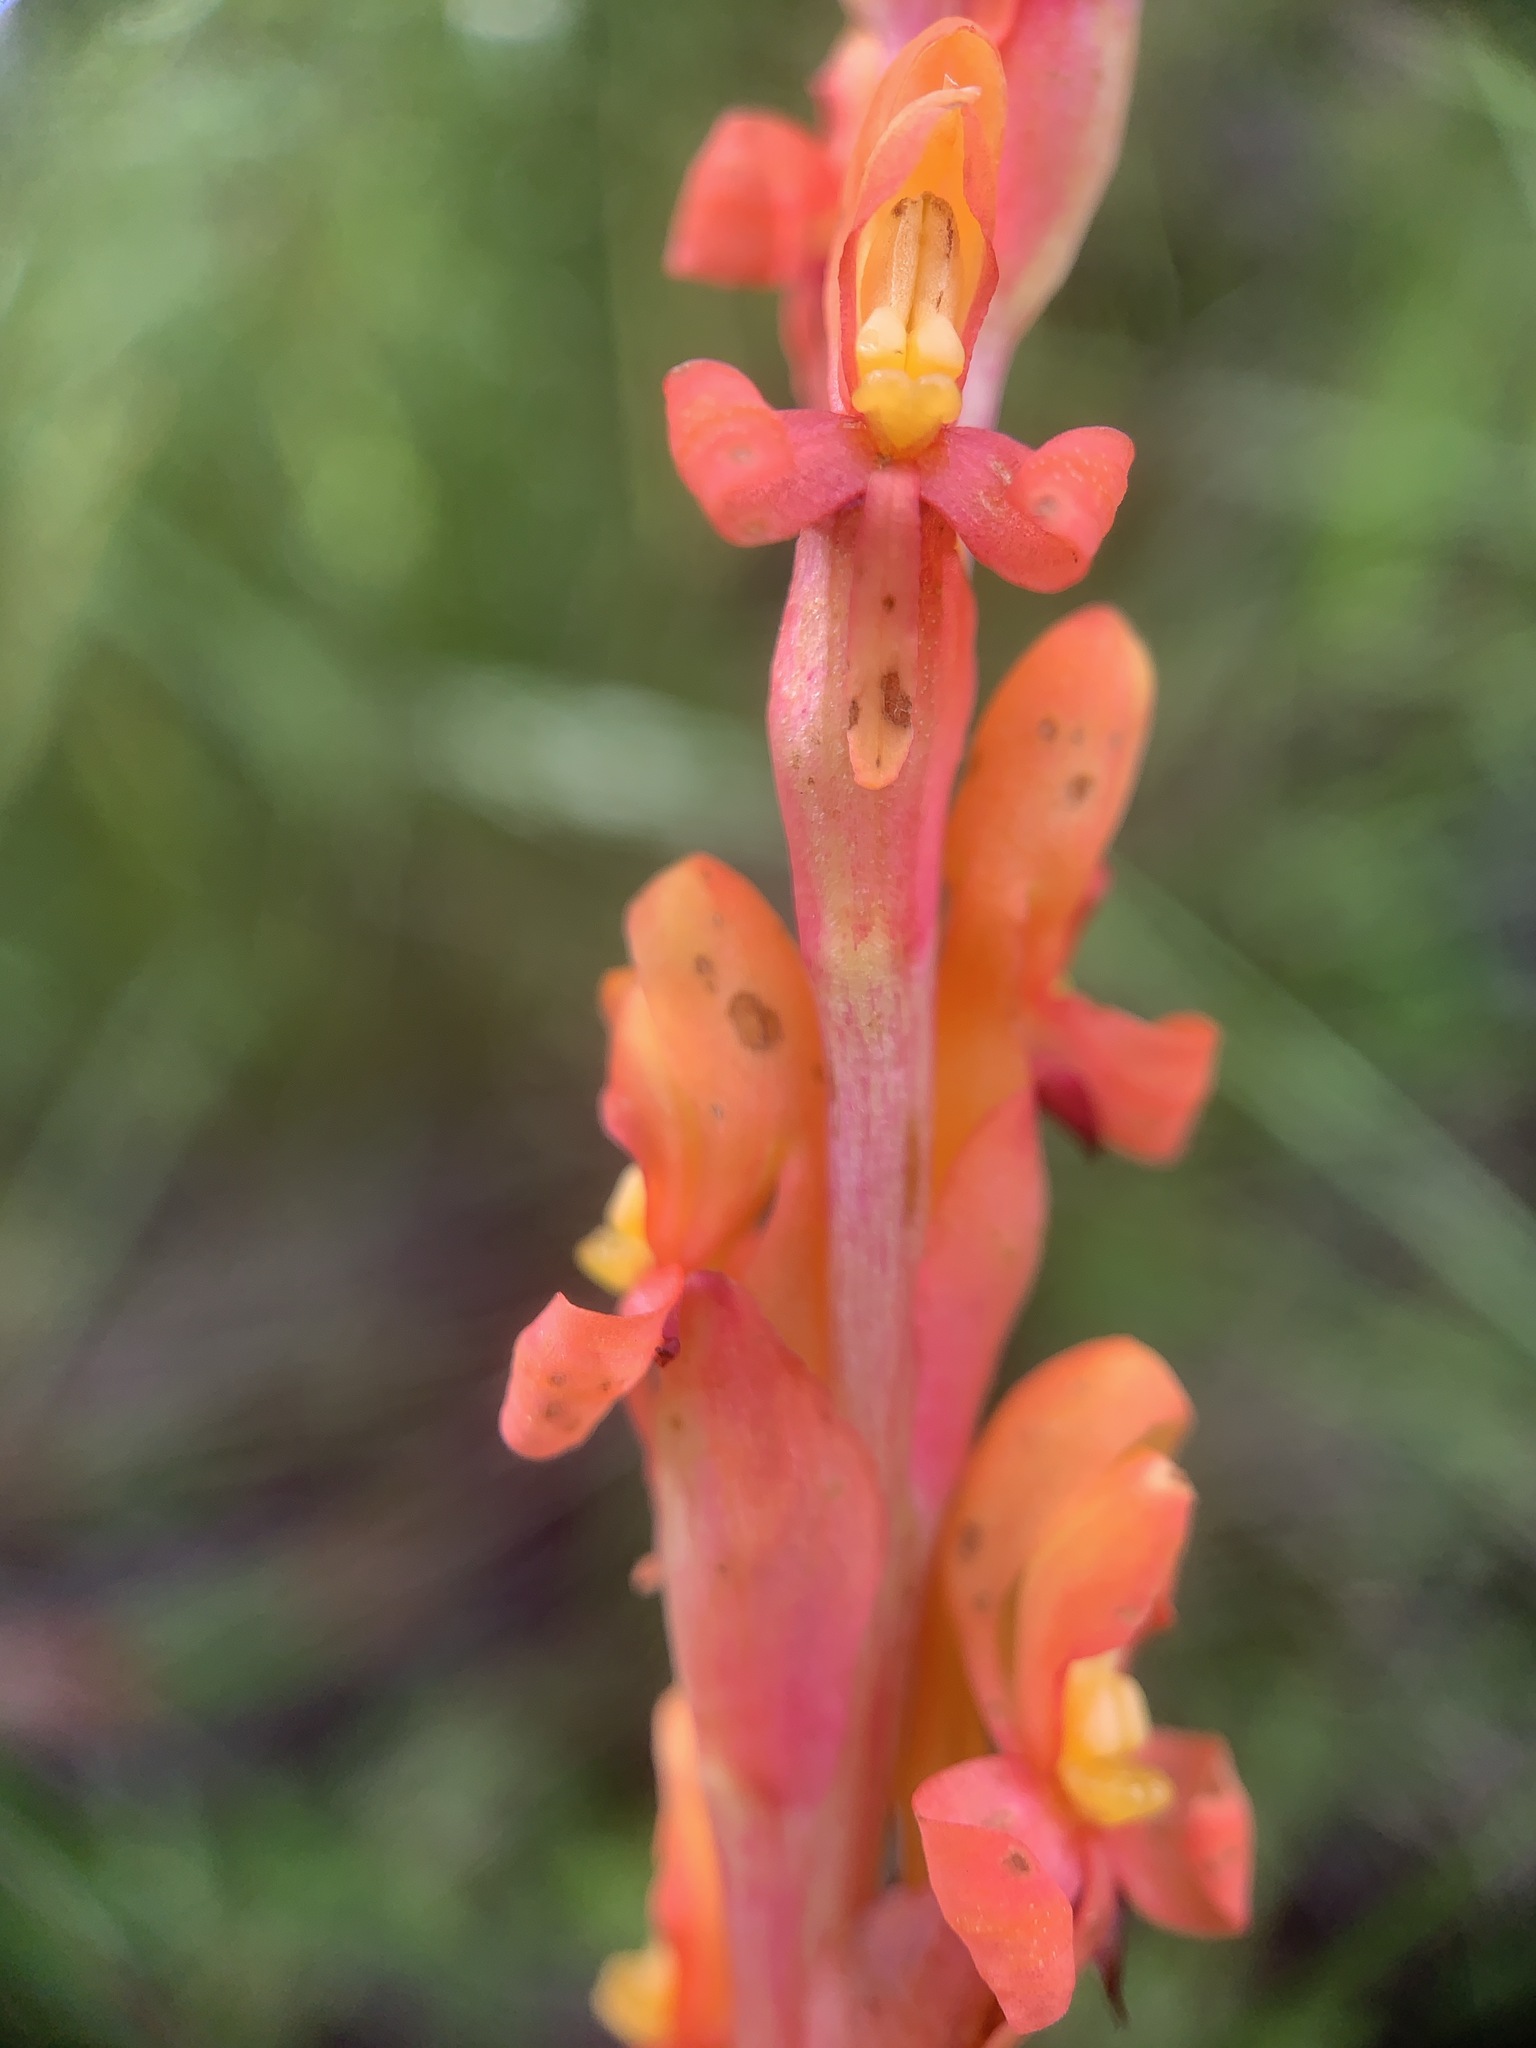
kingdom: Plantae
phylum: Tracheophyta
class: Liliopsida
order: Asparagales
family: Orchidaceae
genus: Disa
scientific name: Disa chrysostachya
